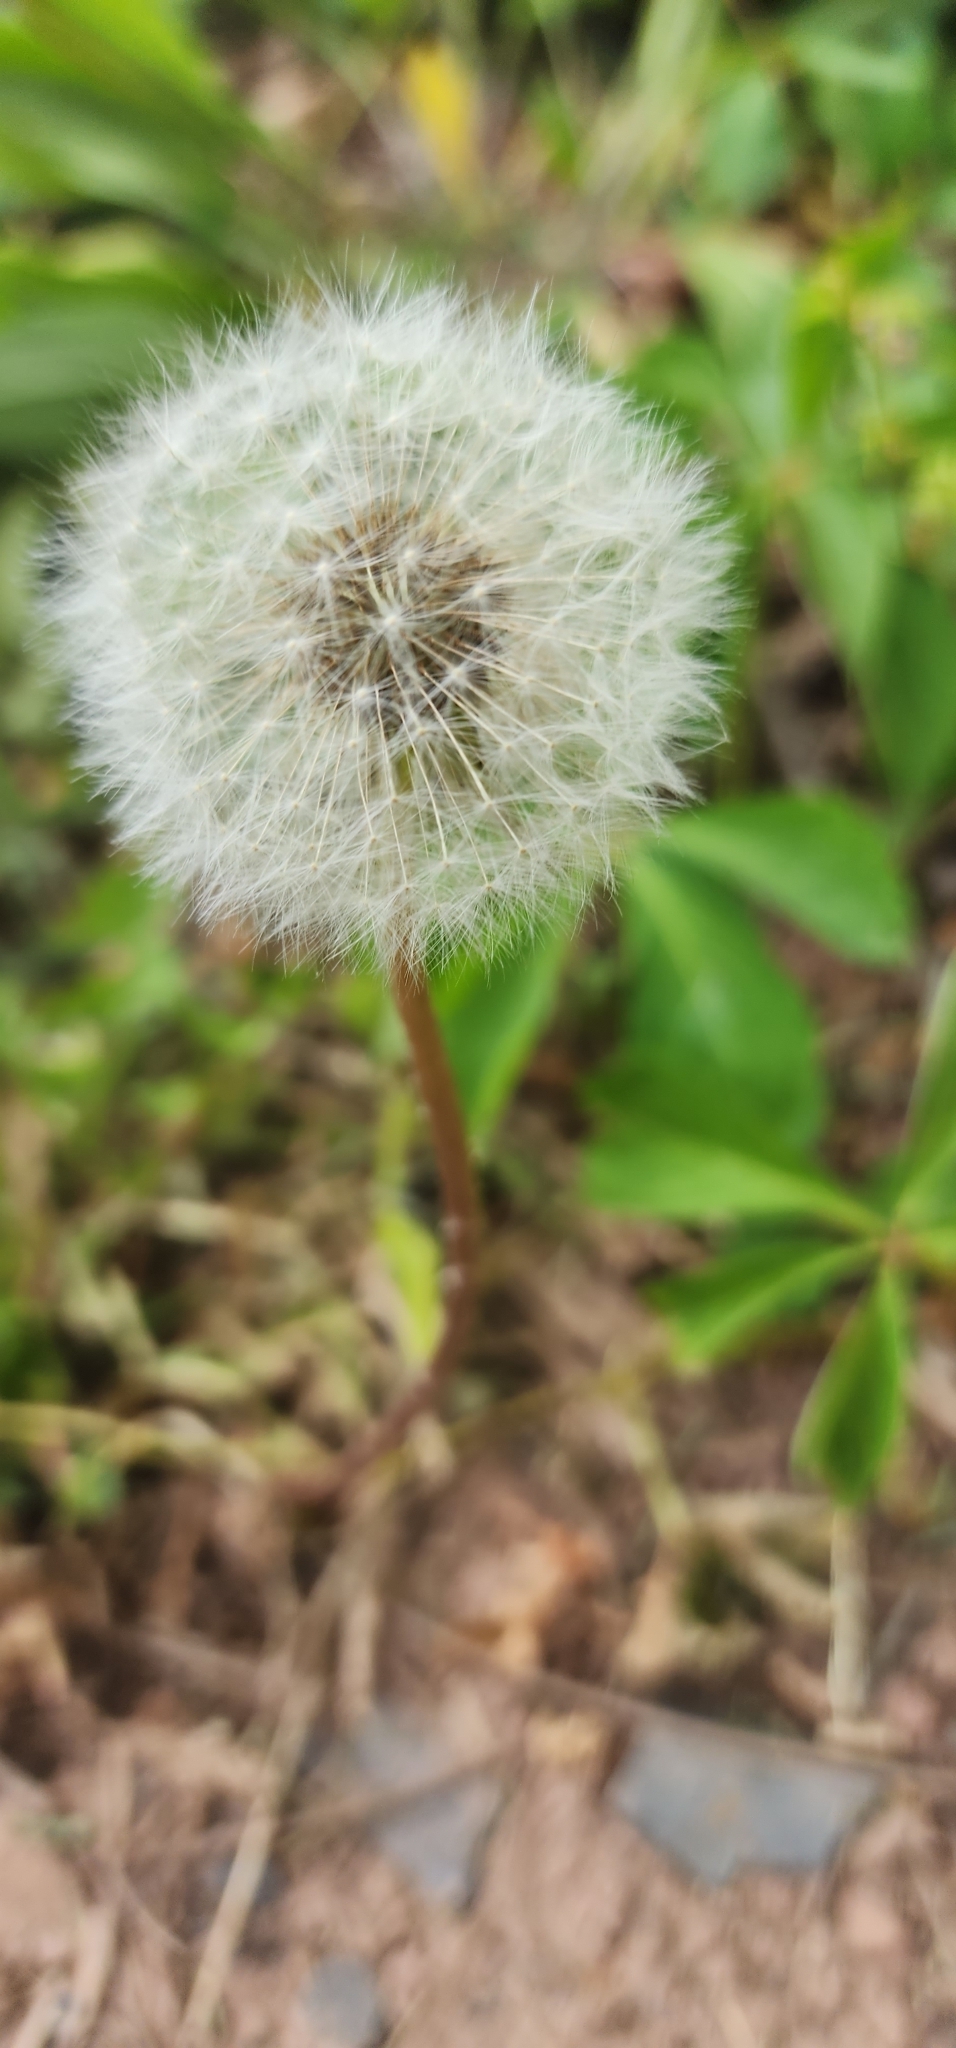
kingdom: Plantae
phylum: Tracheophyta
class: Magnoliopsida
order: Asterales
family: Asteraceae
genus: Taraxacum
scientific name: Taraxacum officinale
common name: Common dandelion
